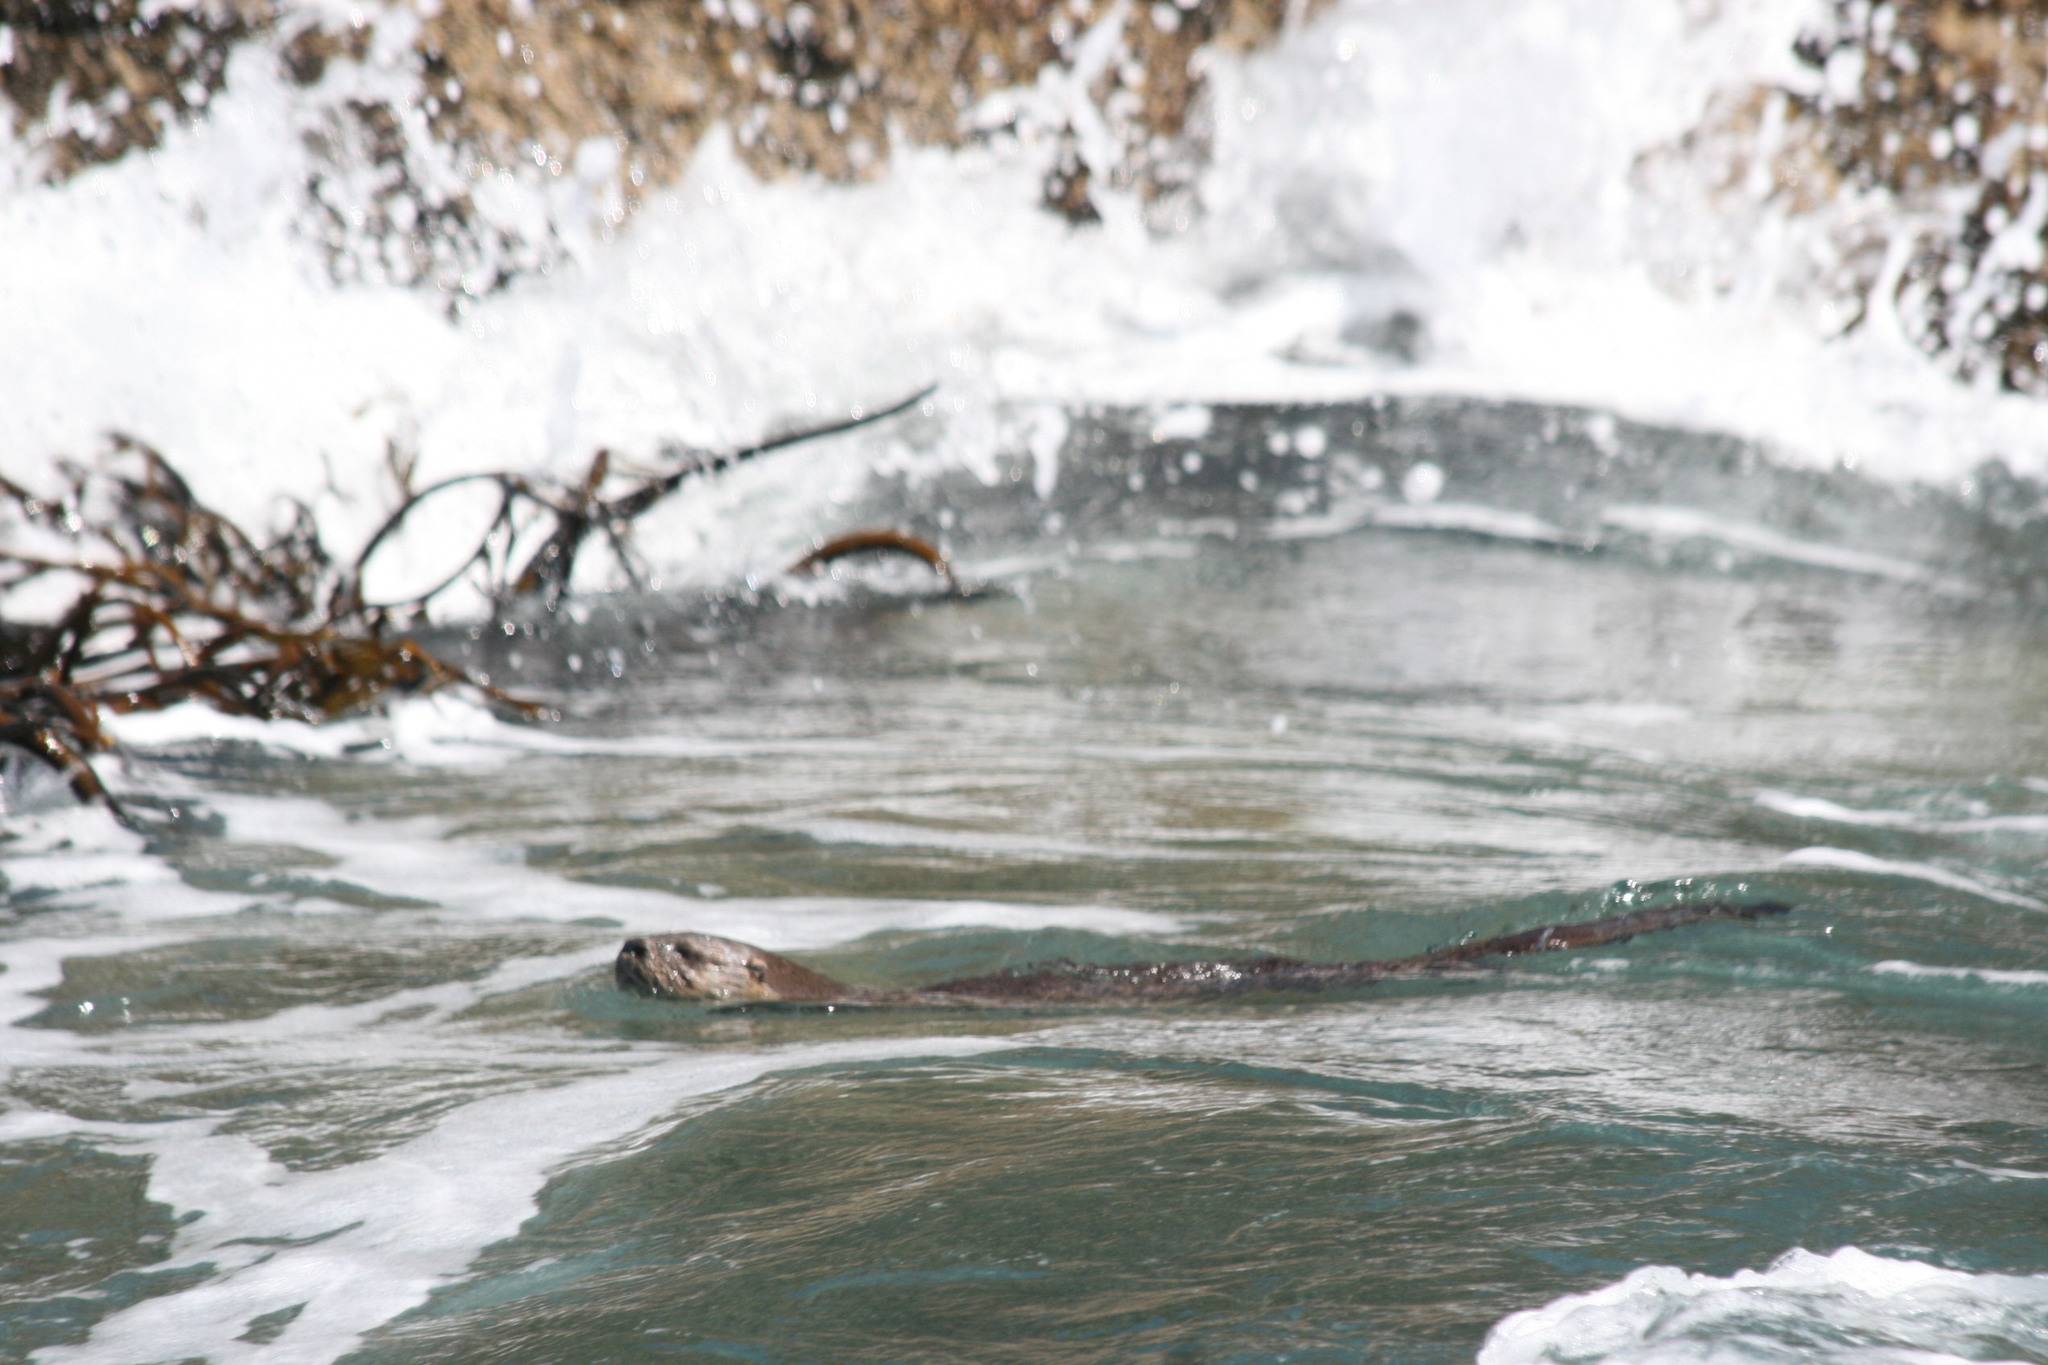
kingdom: Animalia
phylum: Chordata
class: Mammalia
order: Carnivora
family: Mustelidae
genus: Lontra
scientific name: Lontra felina
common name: Marine otter
